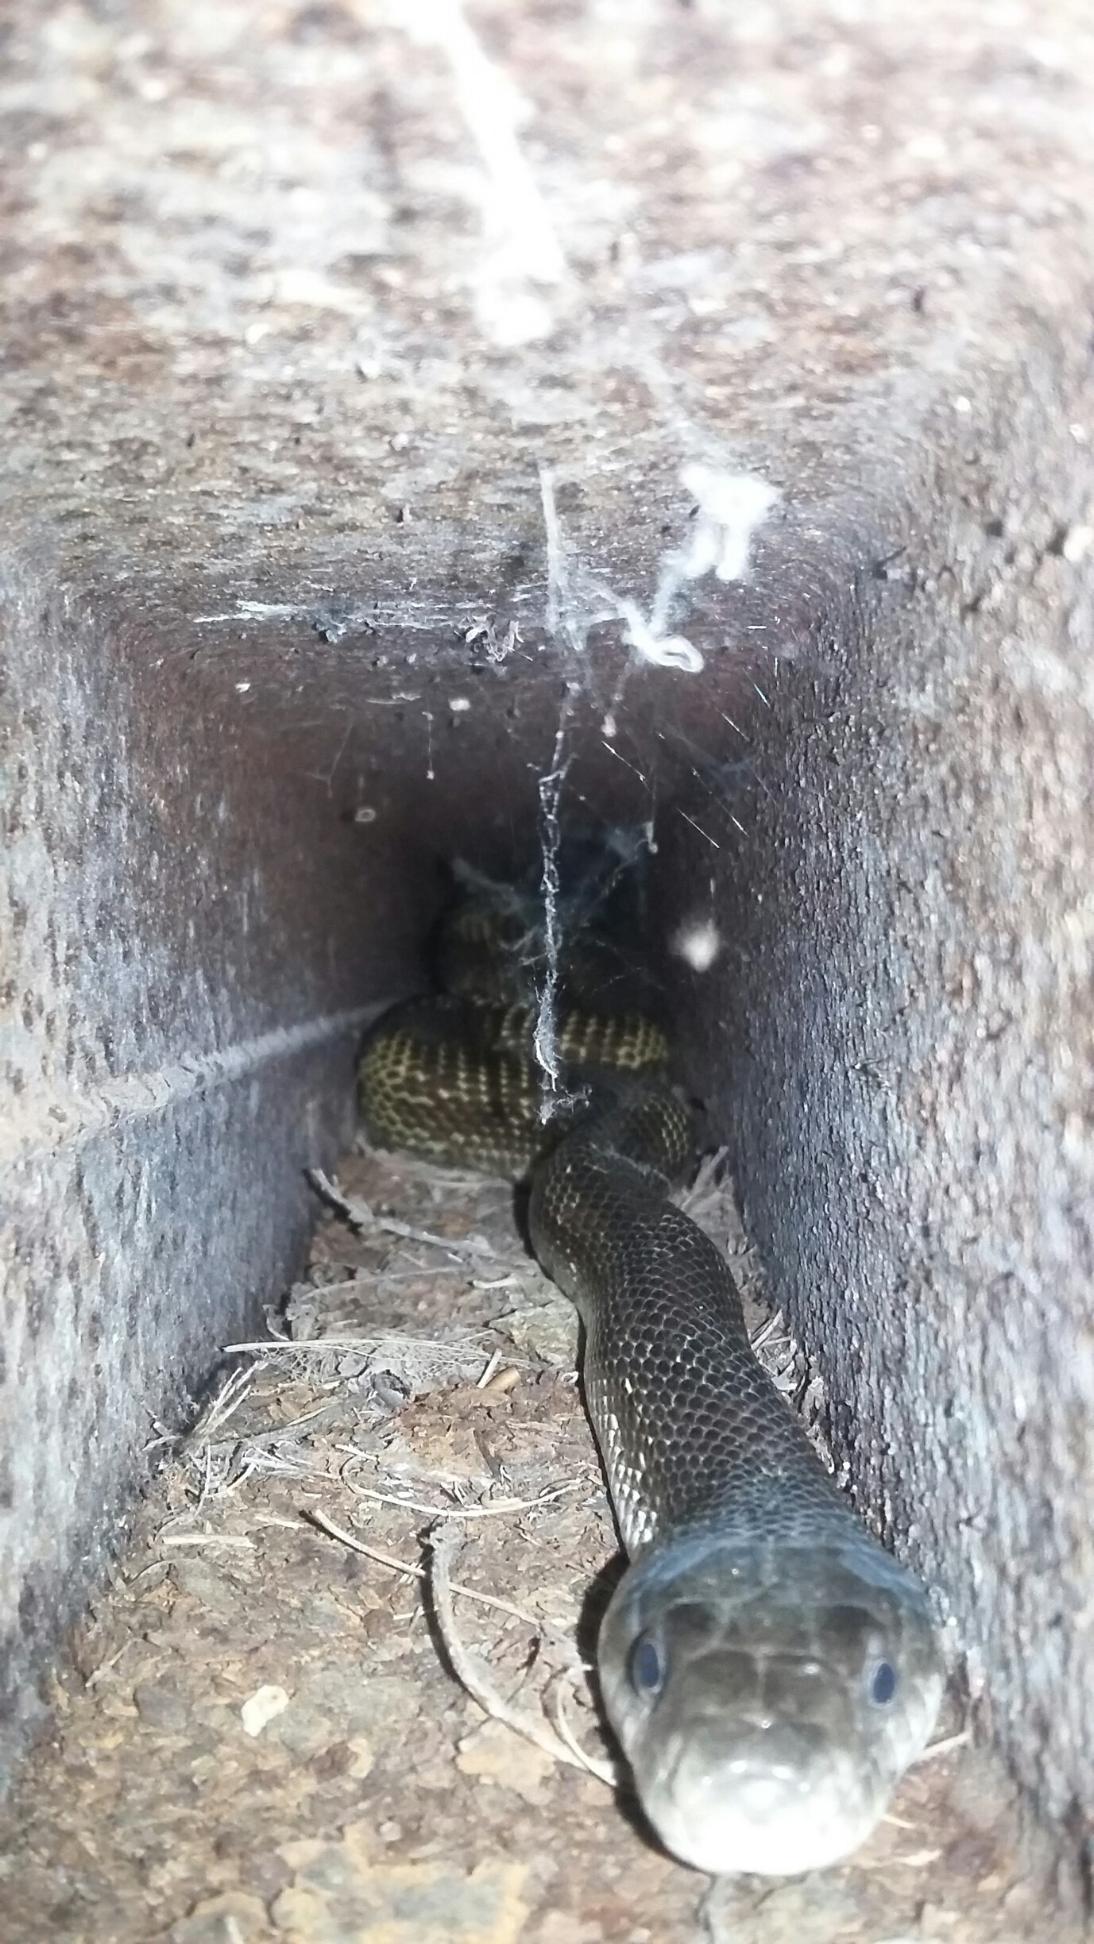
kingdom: Animalia
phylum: Chordata
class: Squamata
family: Colubridae
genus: Pantherophis
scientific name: Pantherophis spiloides
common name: Gray rat snake
